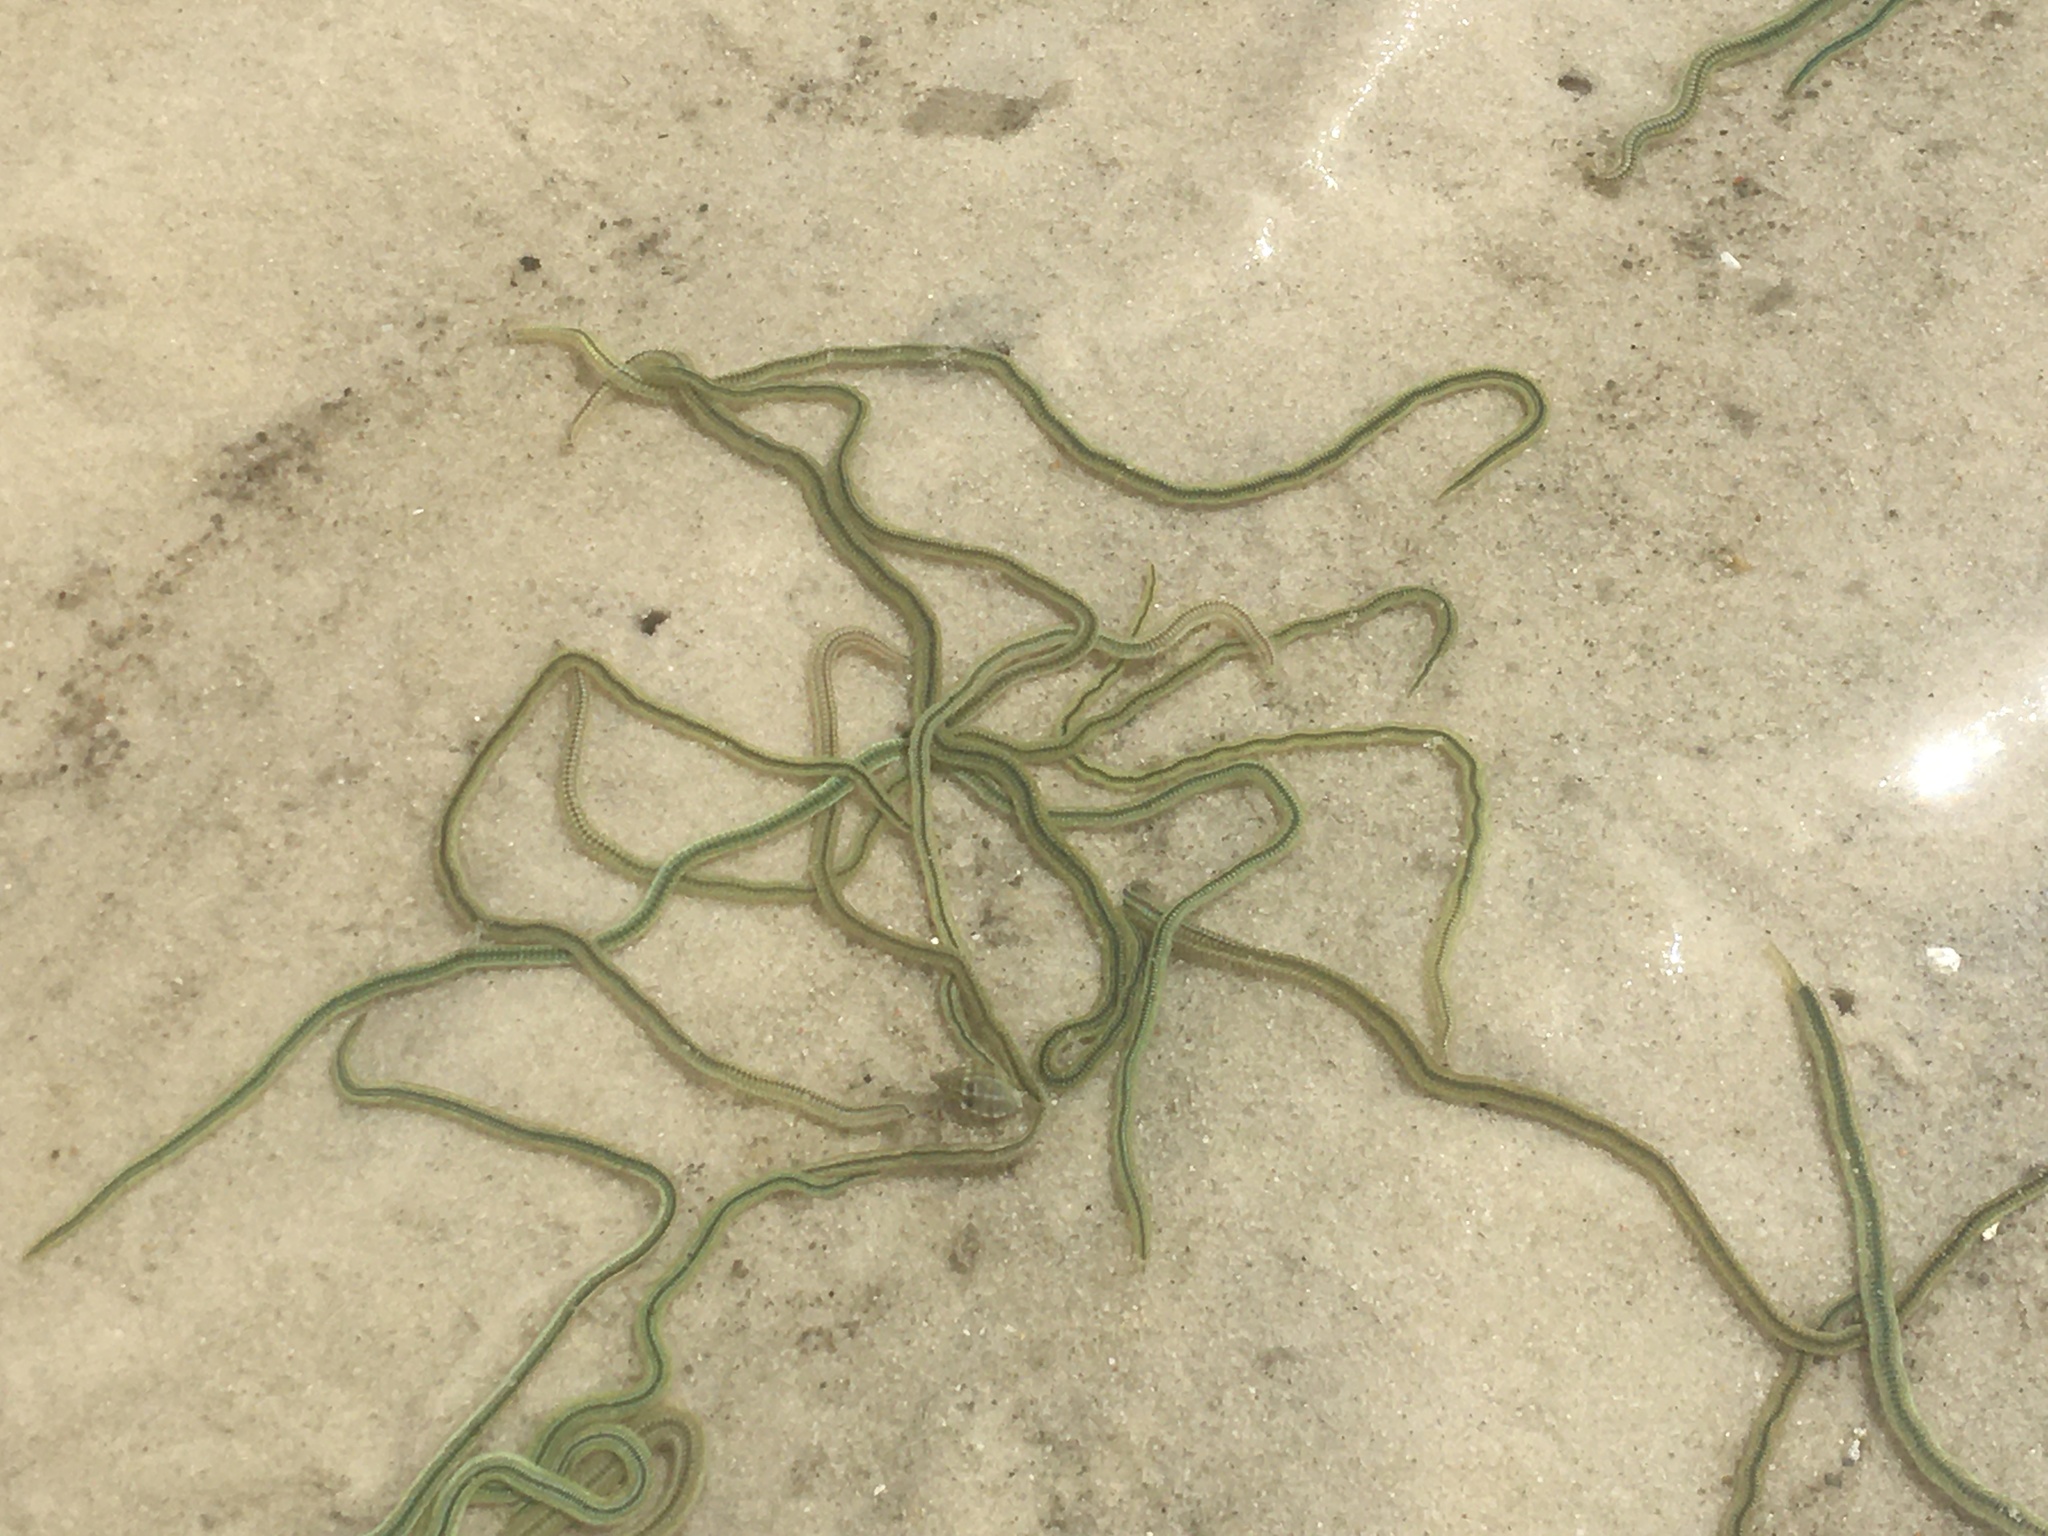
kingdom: Animalia
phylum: Annelida
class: Polychaeta
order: Phyllodocida
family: Phyllodocidae
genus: Phyllodoce
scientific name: Phyllodoce novaehollandiae
